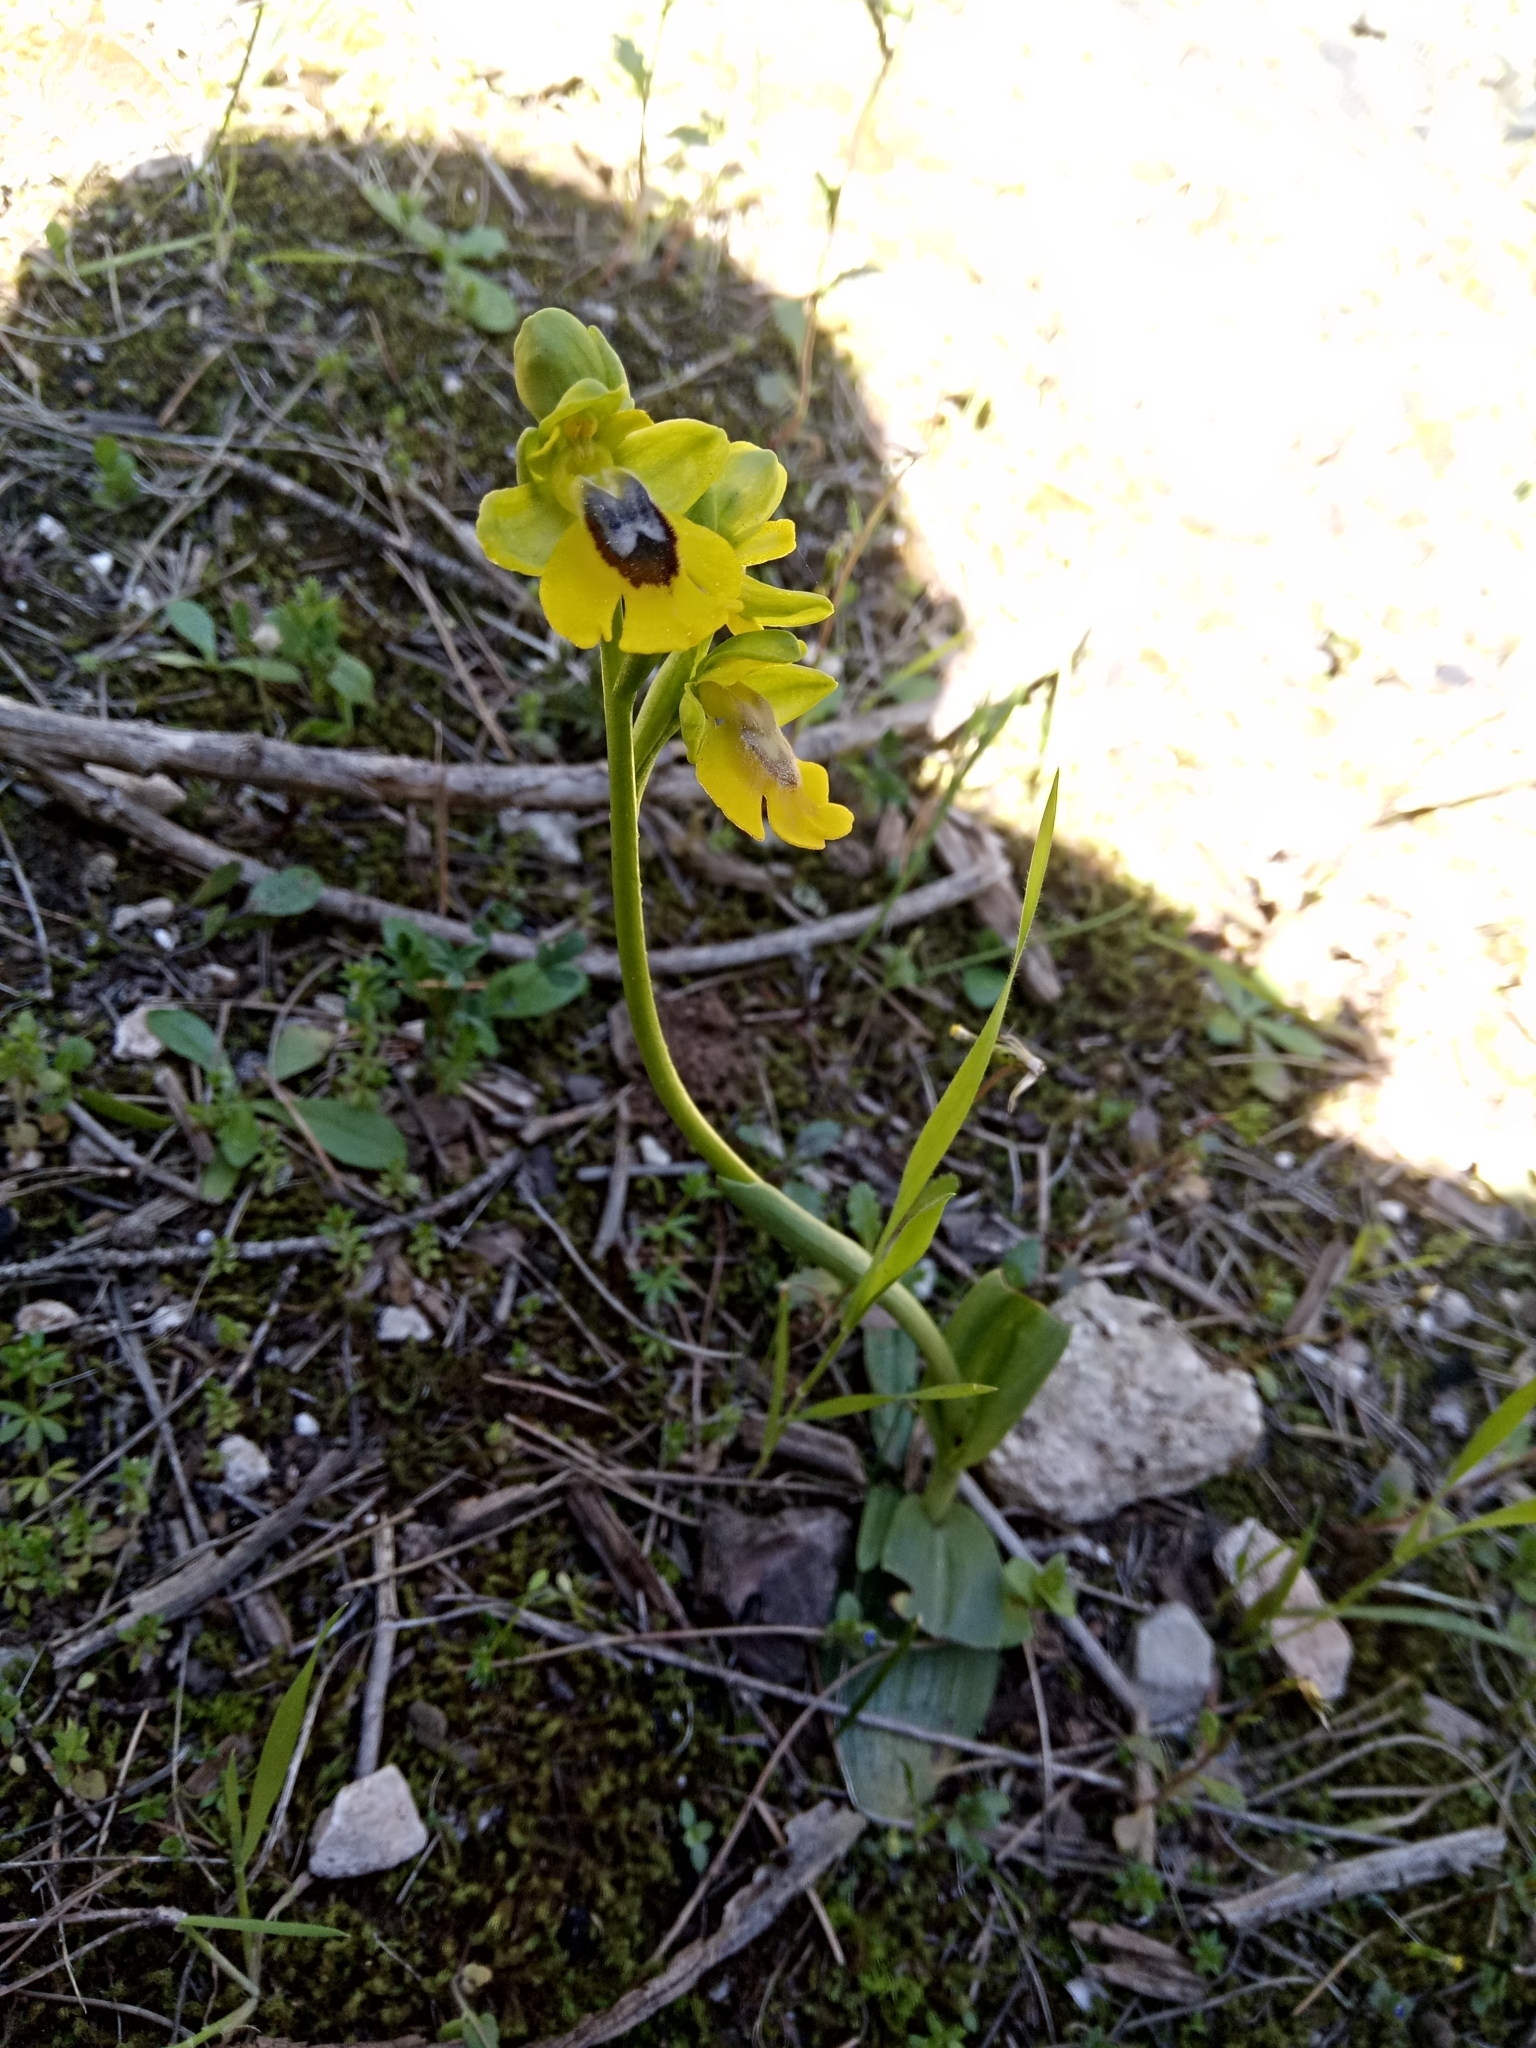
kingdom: Plantae
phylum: Tracheophyta
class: Liliopsida
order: Asparagales
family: Orchidaceae
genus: Ophrys
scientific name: Ophrys lutea
